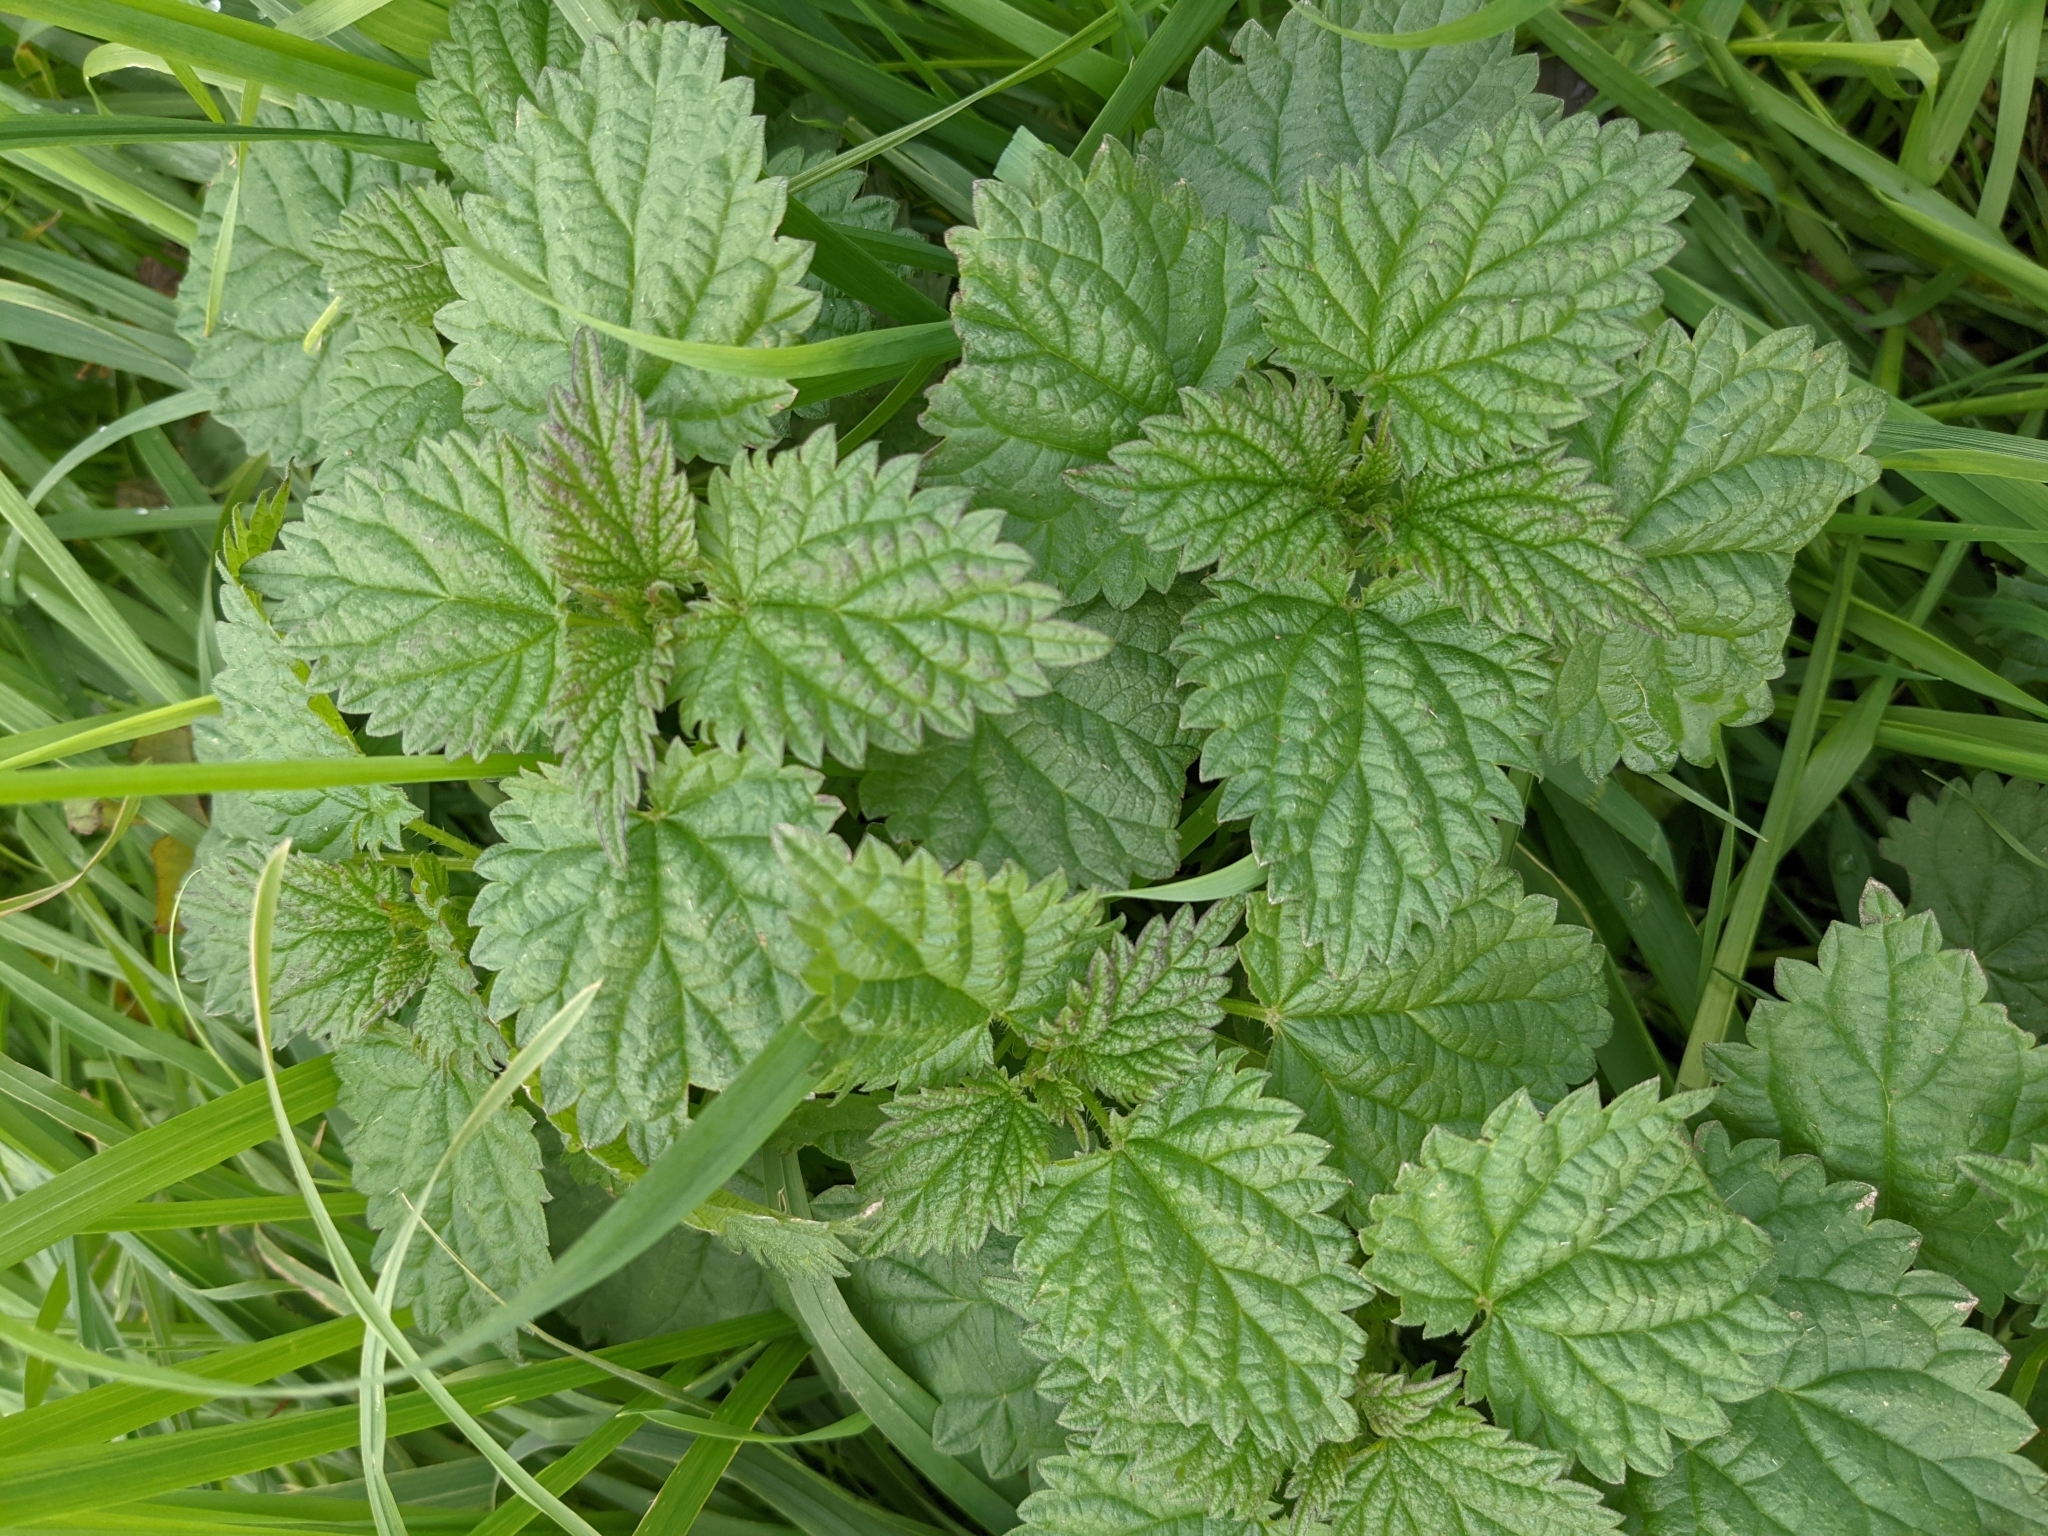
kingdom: Plantae
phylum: Tracheophyta
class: Magnoliopsida
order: Rosales
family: Urticaceae
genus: Urtica
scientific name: Urtica dioica
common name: Common nettle
